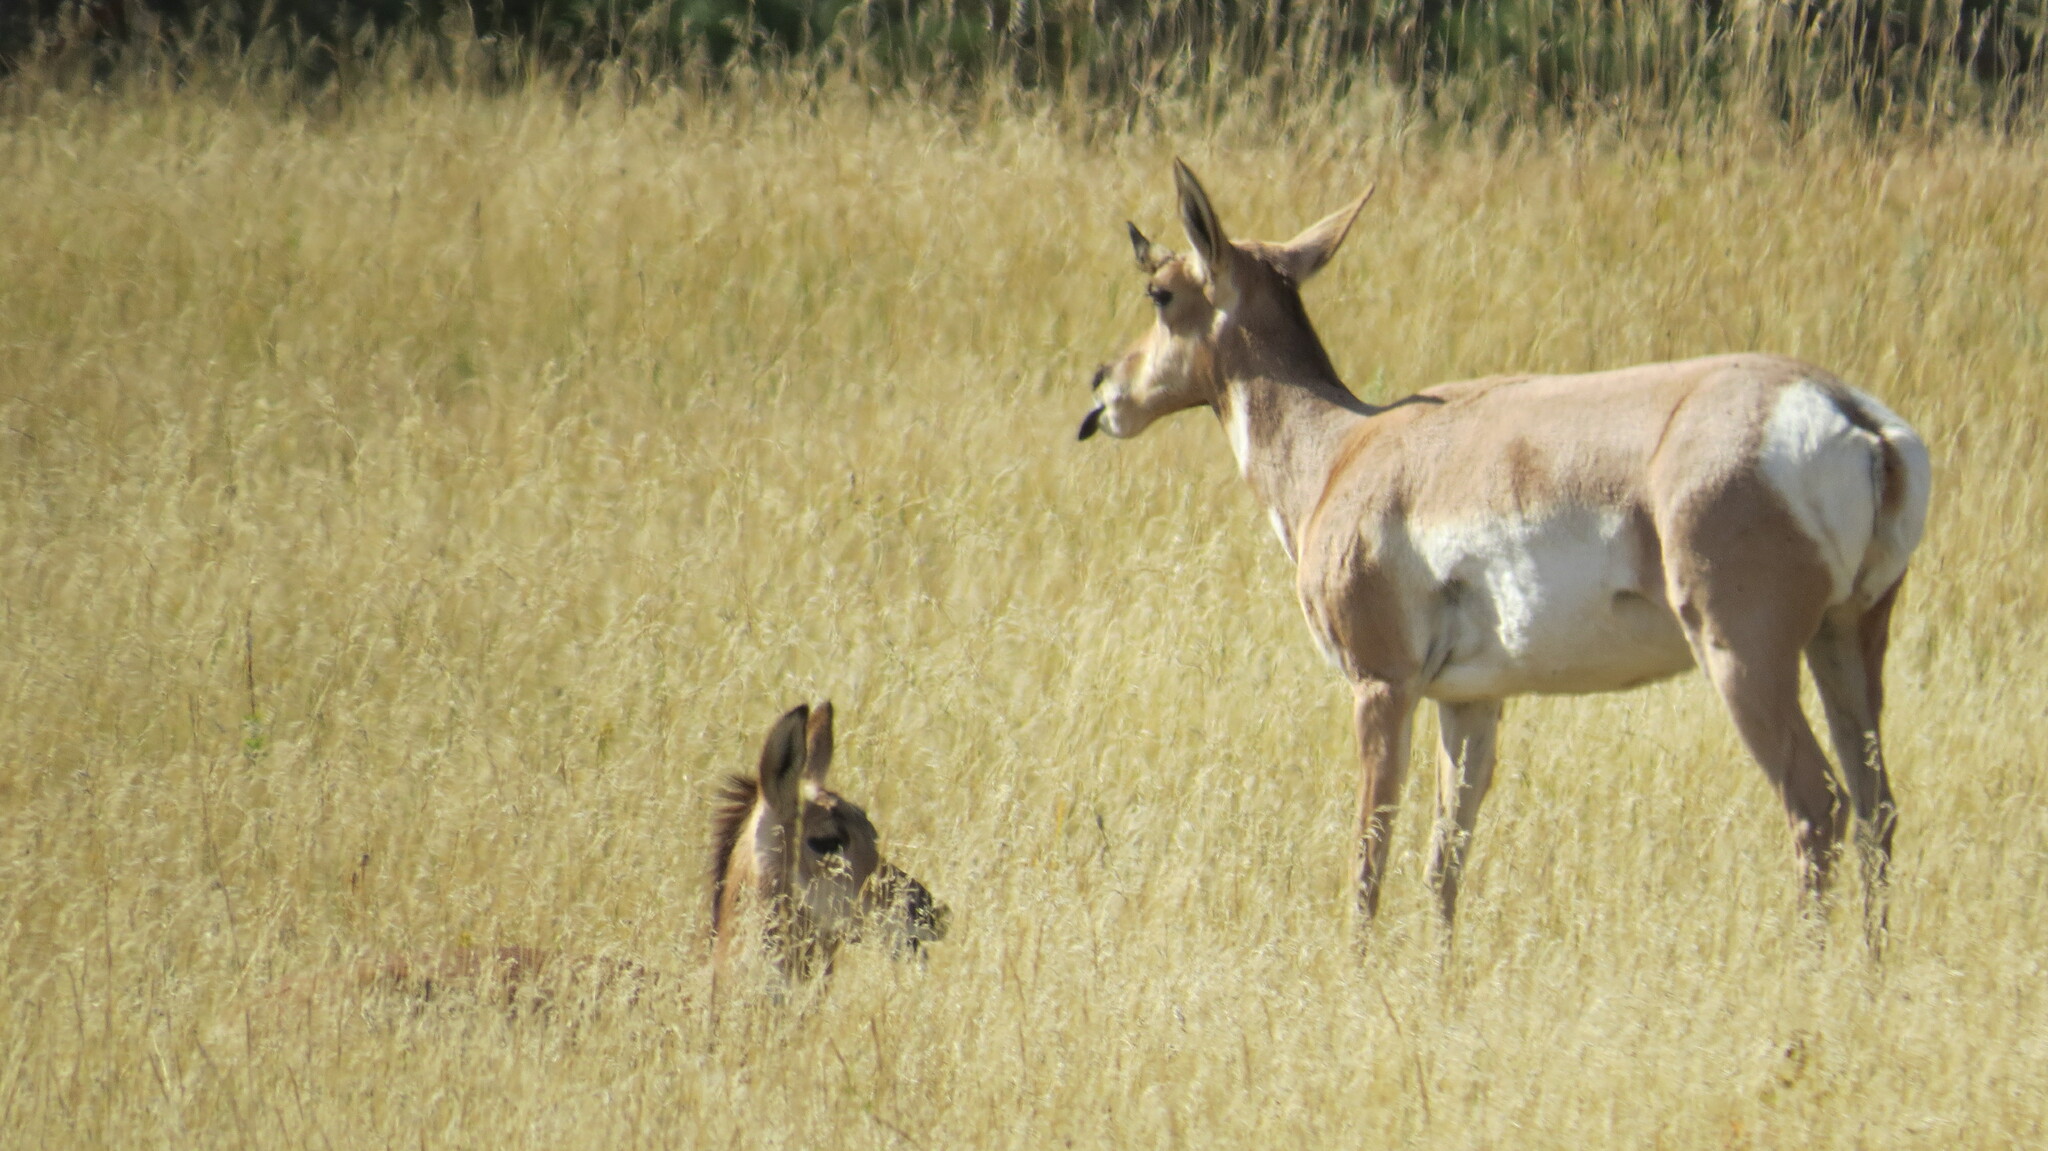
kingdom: Animalia
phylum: Chordata
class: Mammalia
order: Artiodactyla
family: Antilocapridae
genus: Antilocapra
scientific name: Antilocapra americana
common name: Pronghorn
